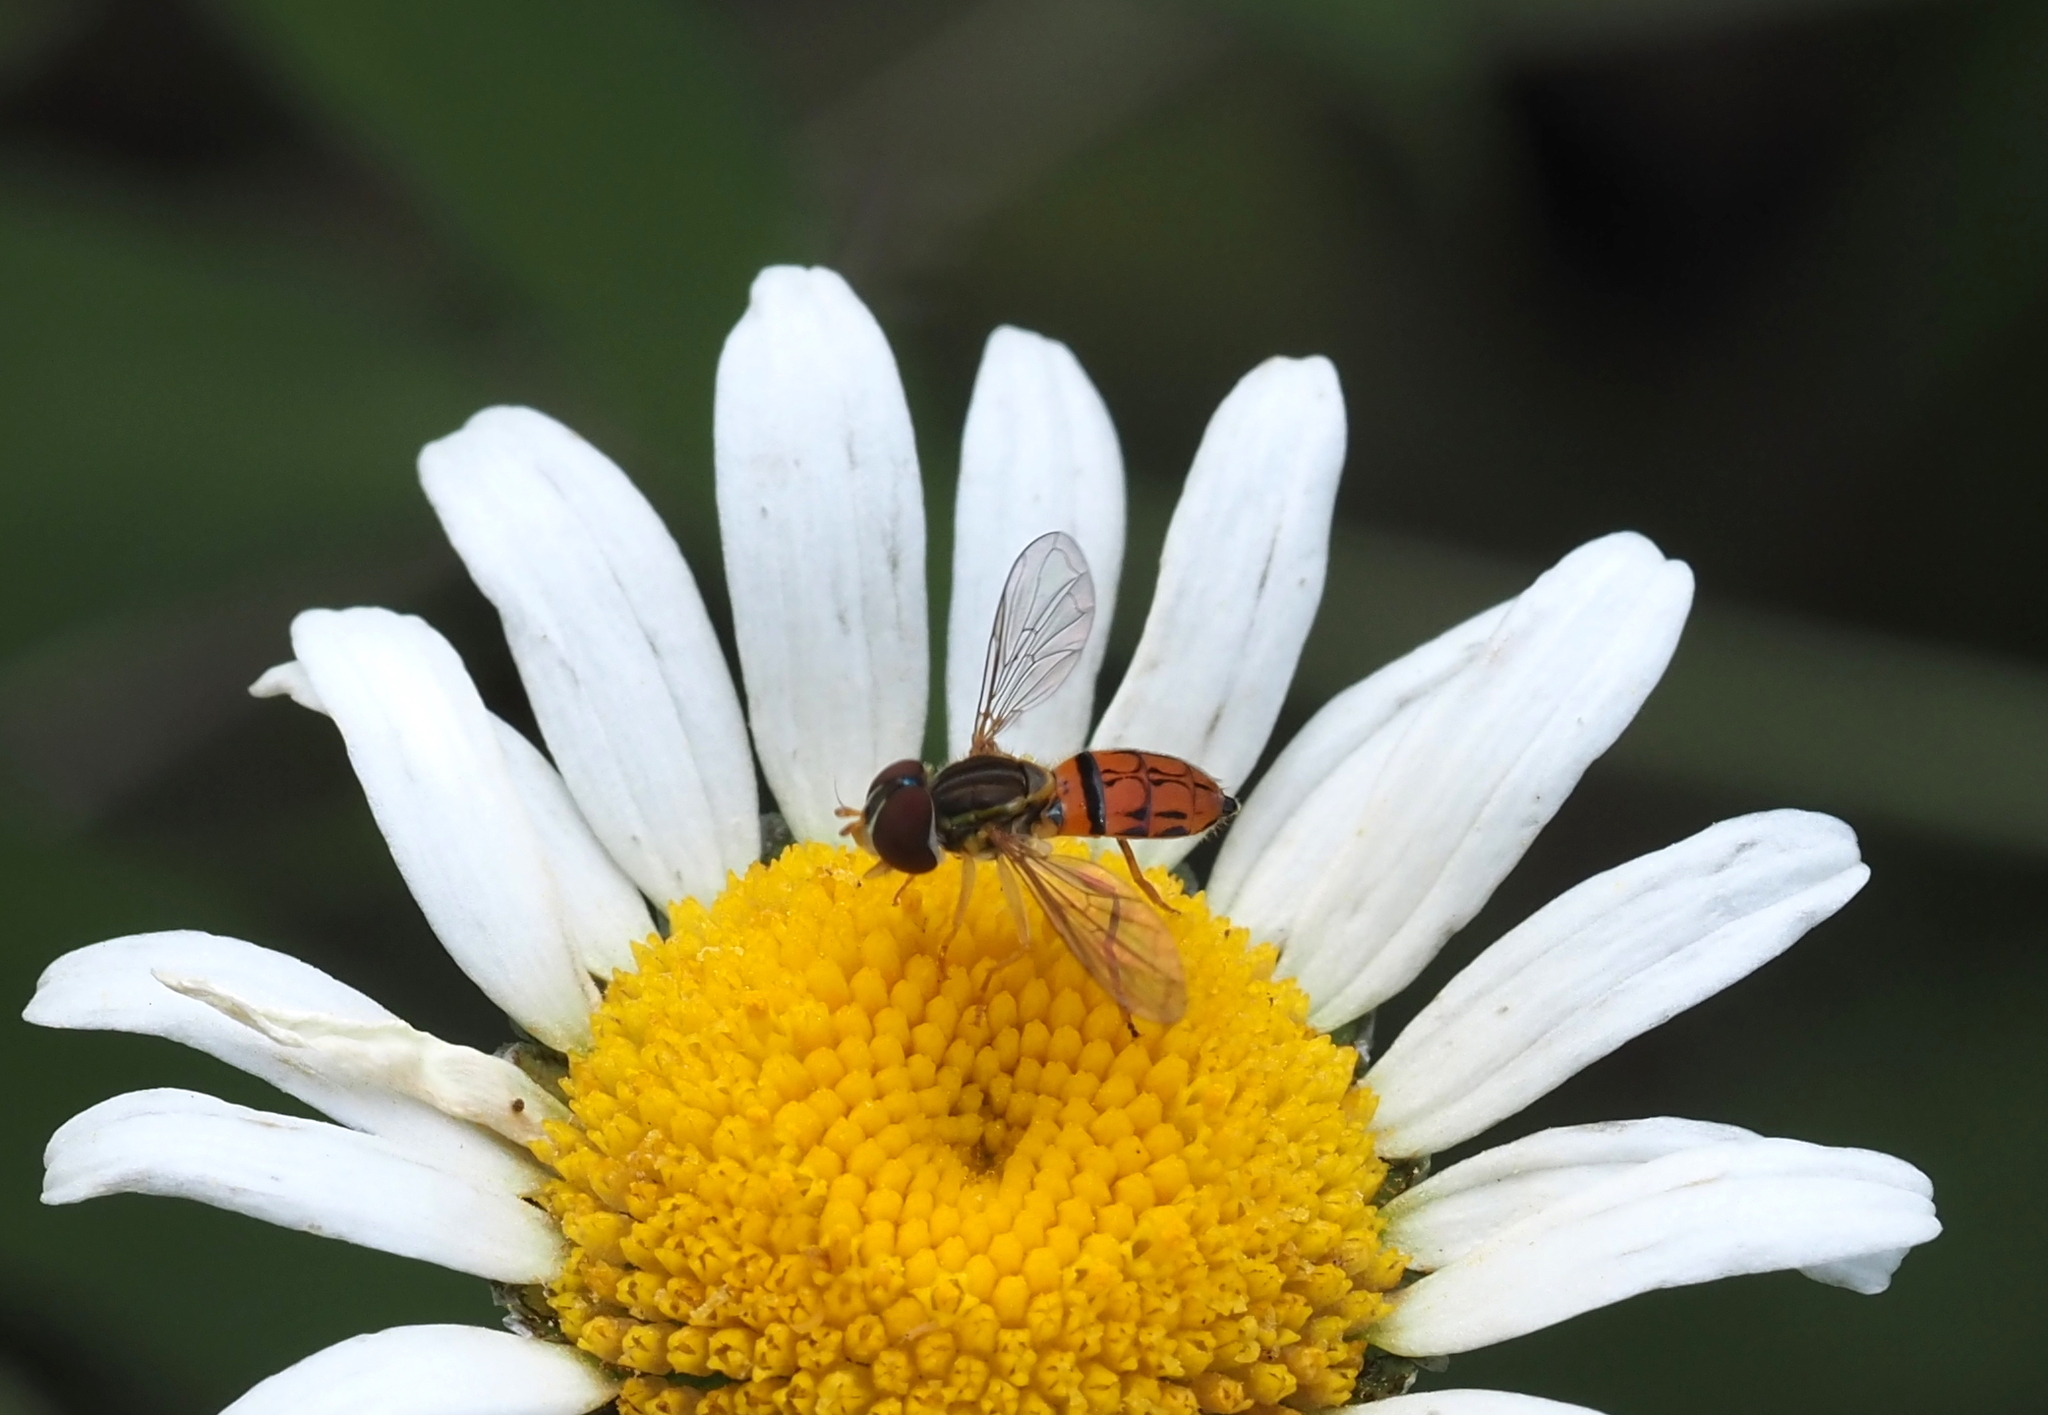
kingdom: Animalia
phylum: Arthropoda
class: Insecta
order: Diptera
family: Syrphidae
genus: Toxomerus
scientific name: Toxomerus boscii
